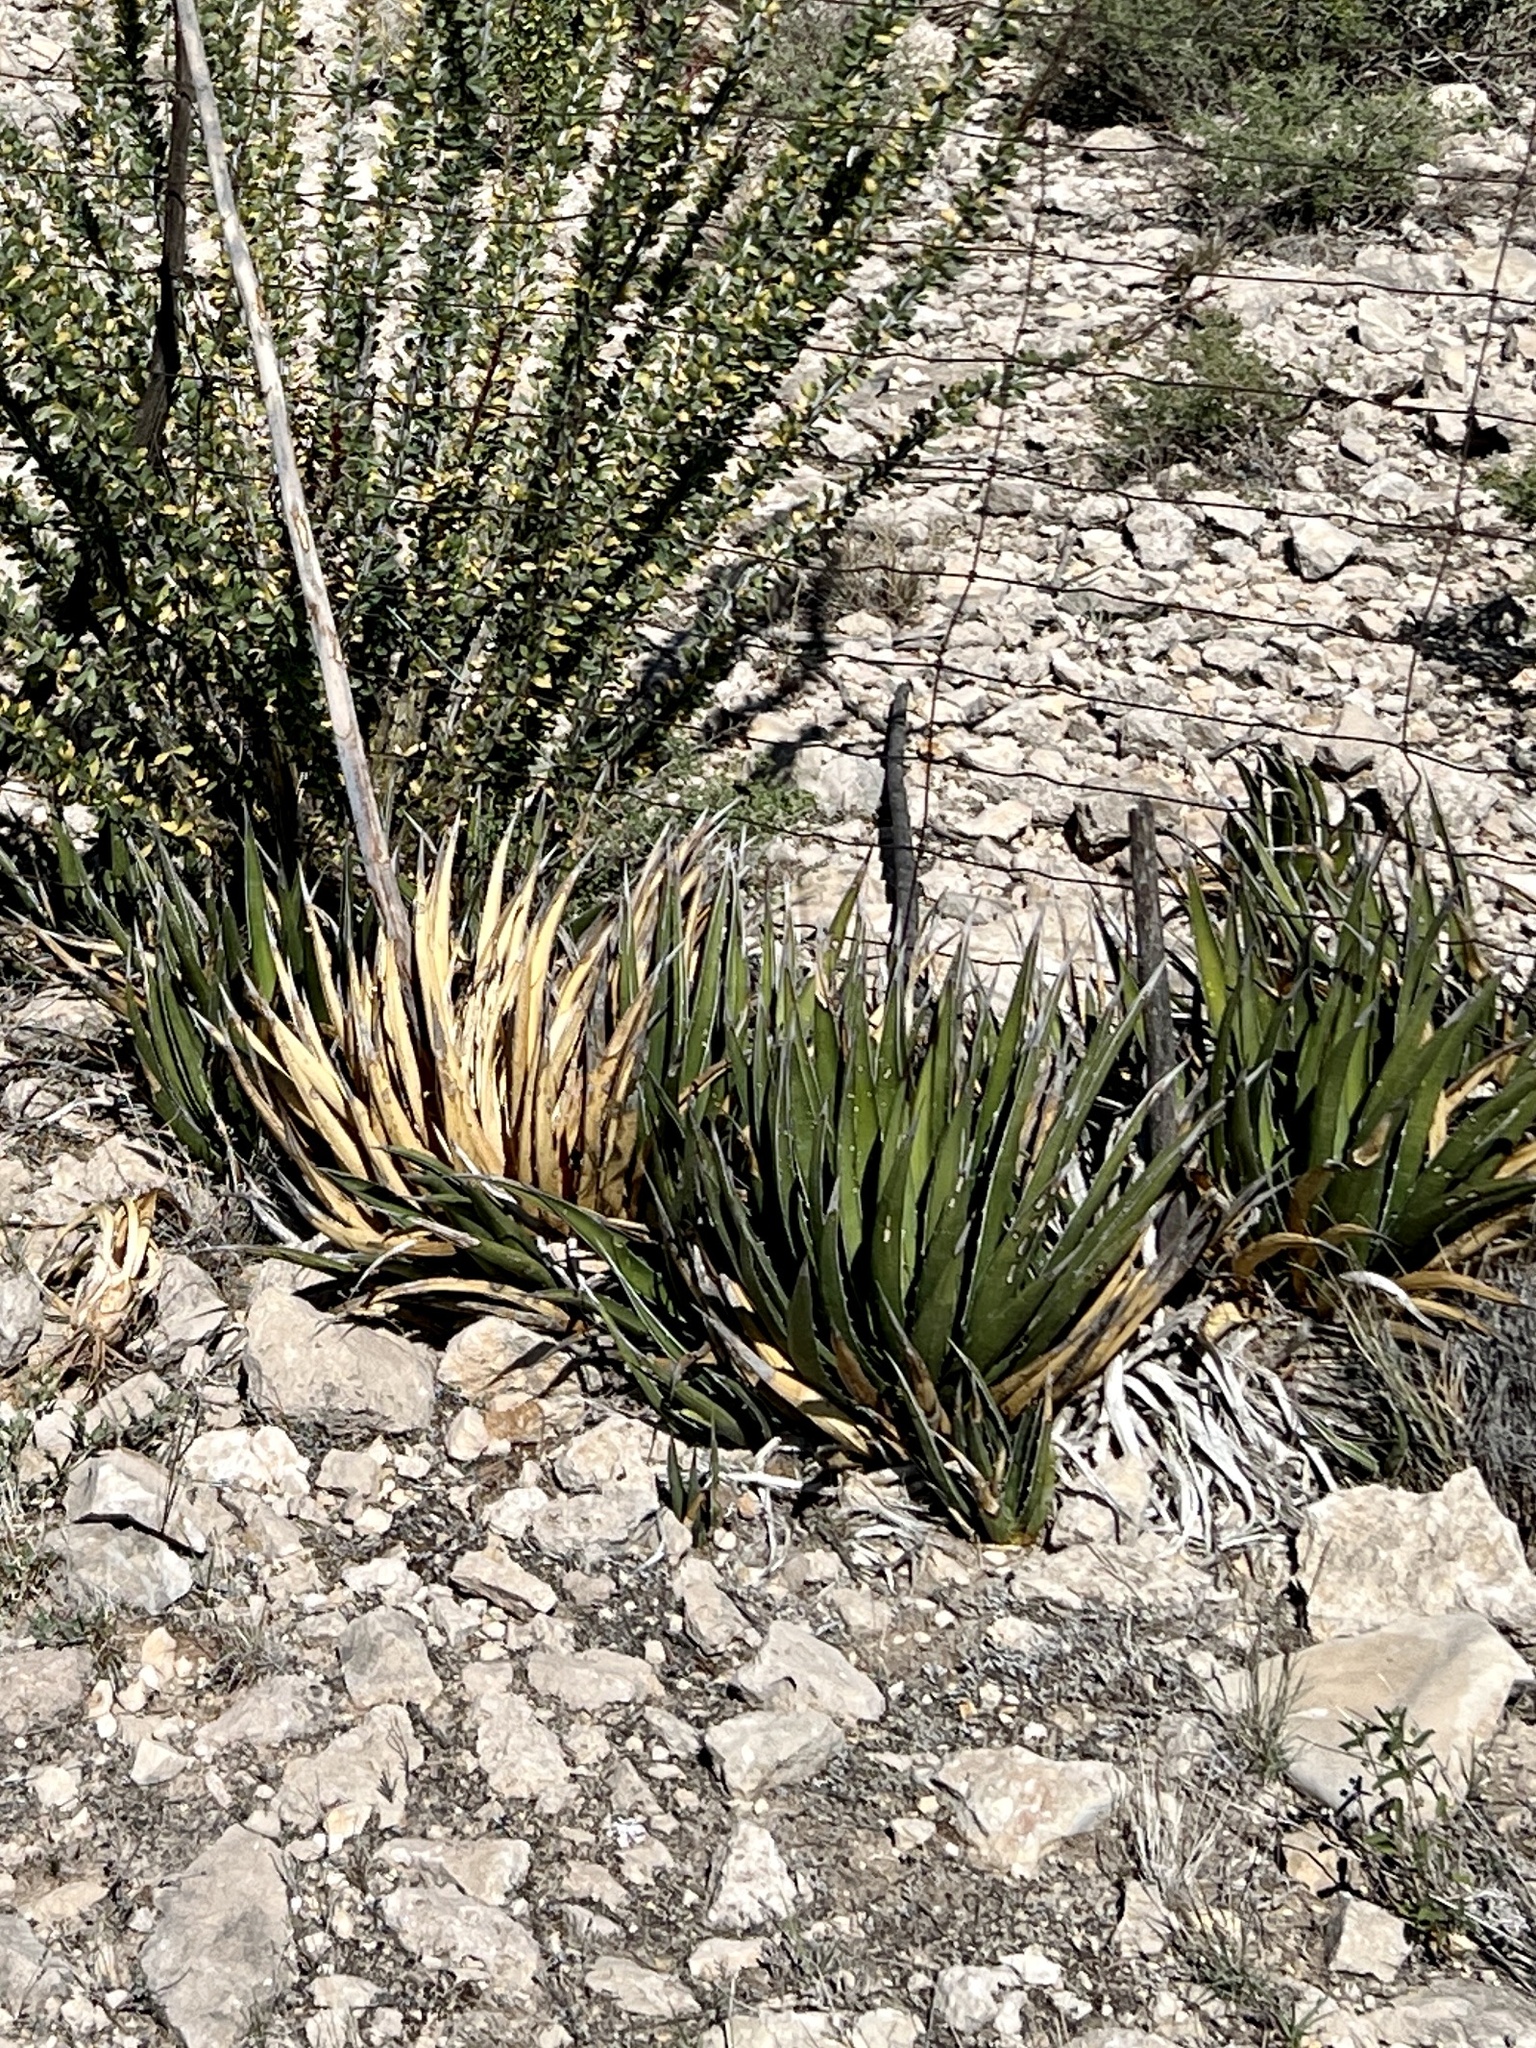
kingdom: Plantae
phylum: Tracheophyta
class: Liliopsida
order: Asparagales
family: Asparagaceae
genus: Agave
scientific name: Agave lechuguilla
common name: Lecheguilla agave
